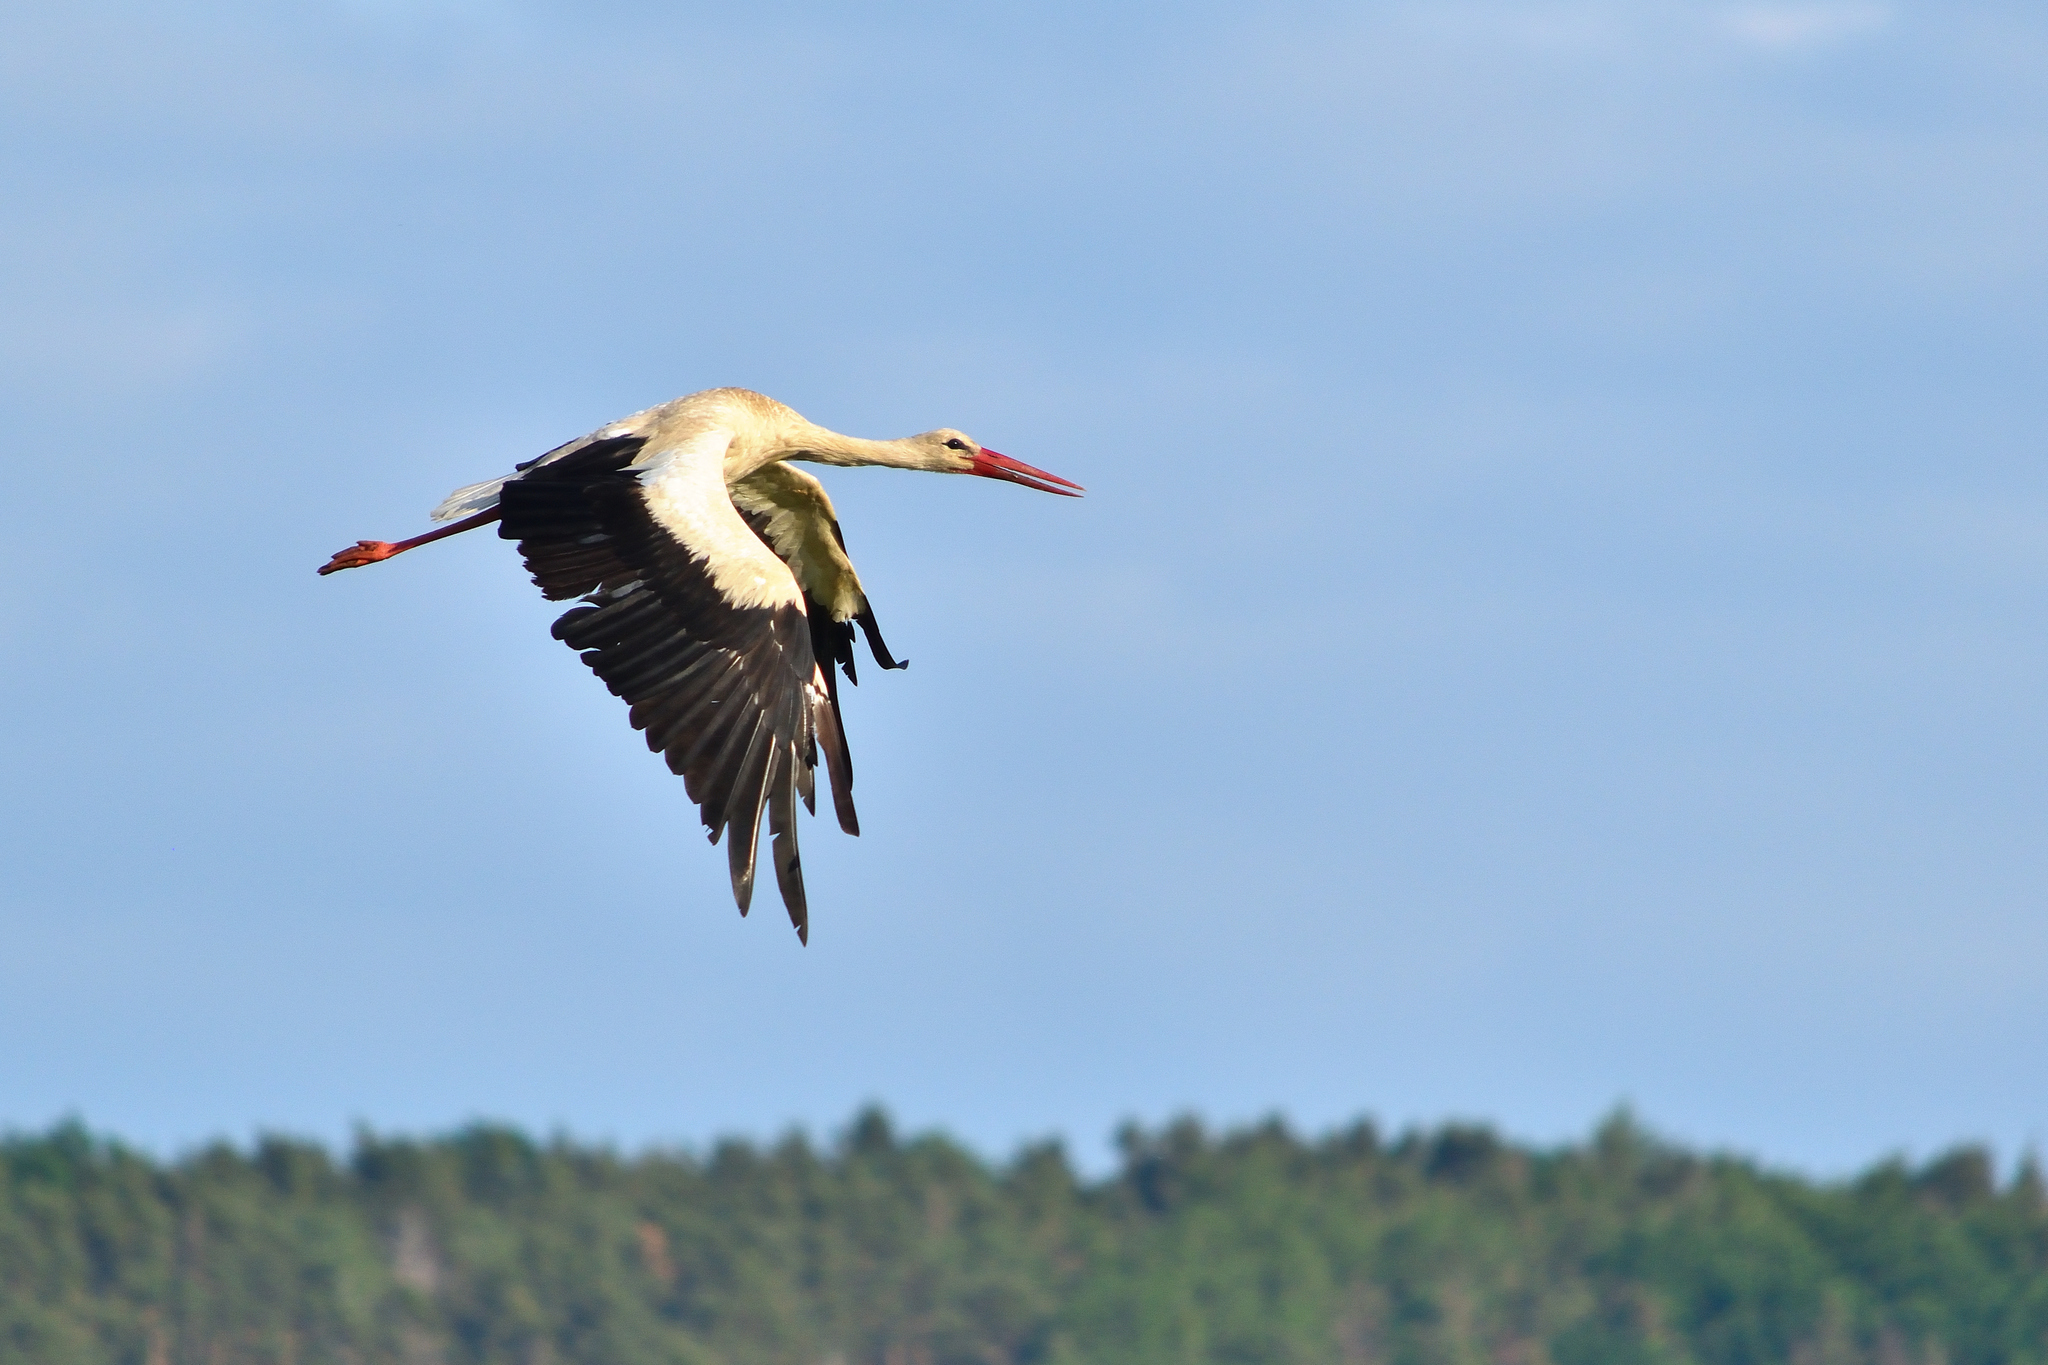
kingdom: Animalia
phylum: Chordata
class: Aves
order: Ciconiiformes
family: Ciconiidae
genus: Ciconia
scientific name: Ciconia ciconia
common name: White stork
